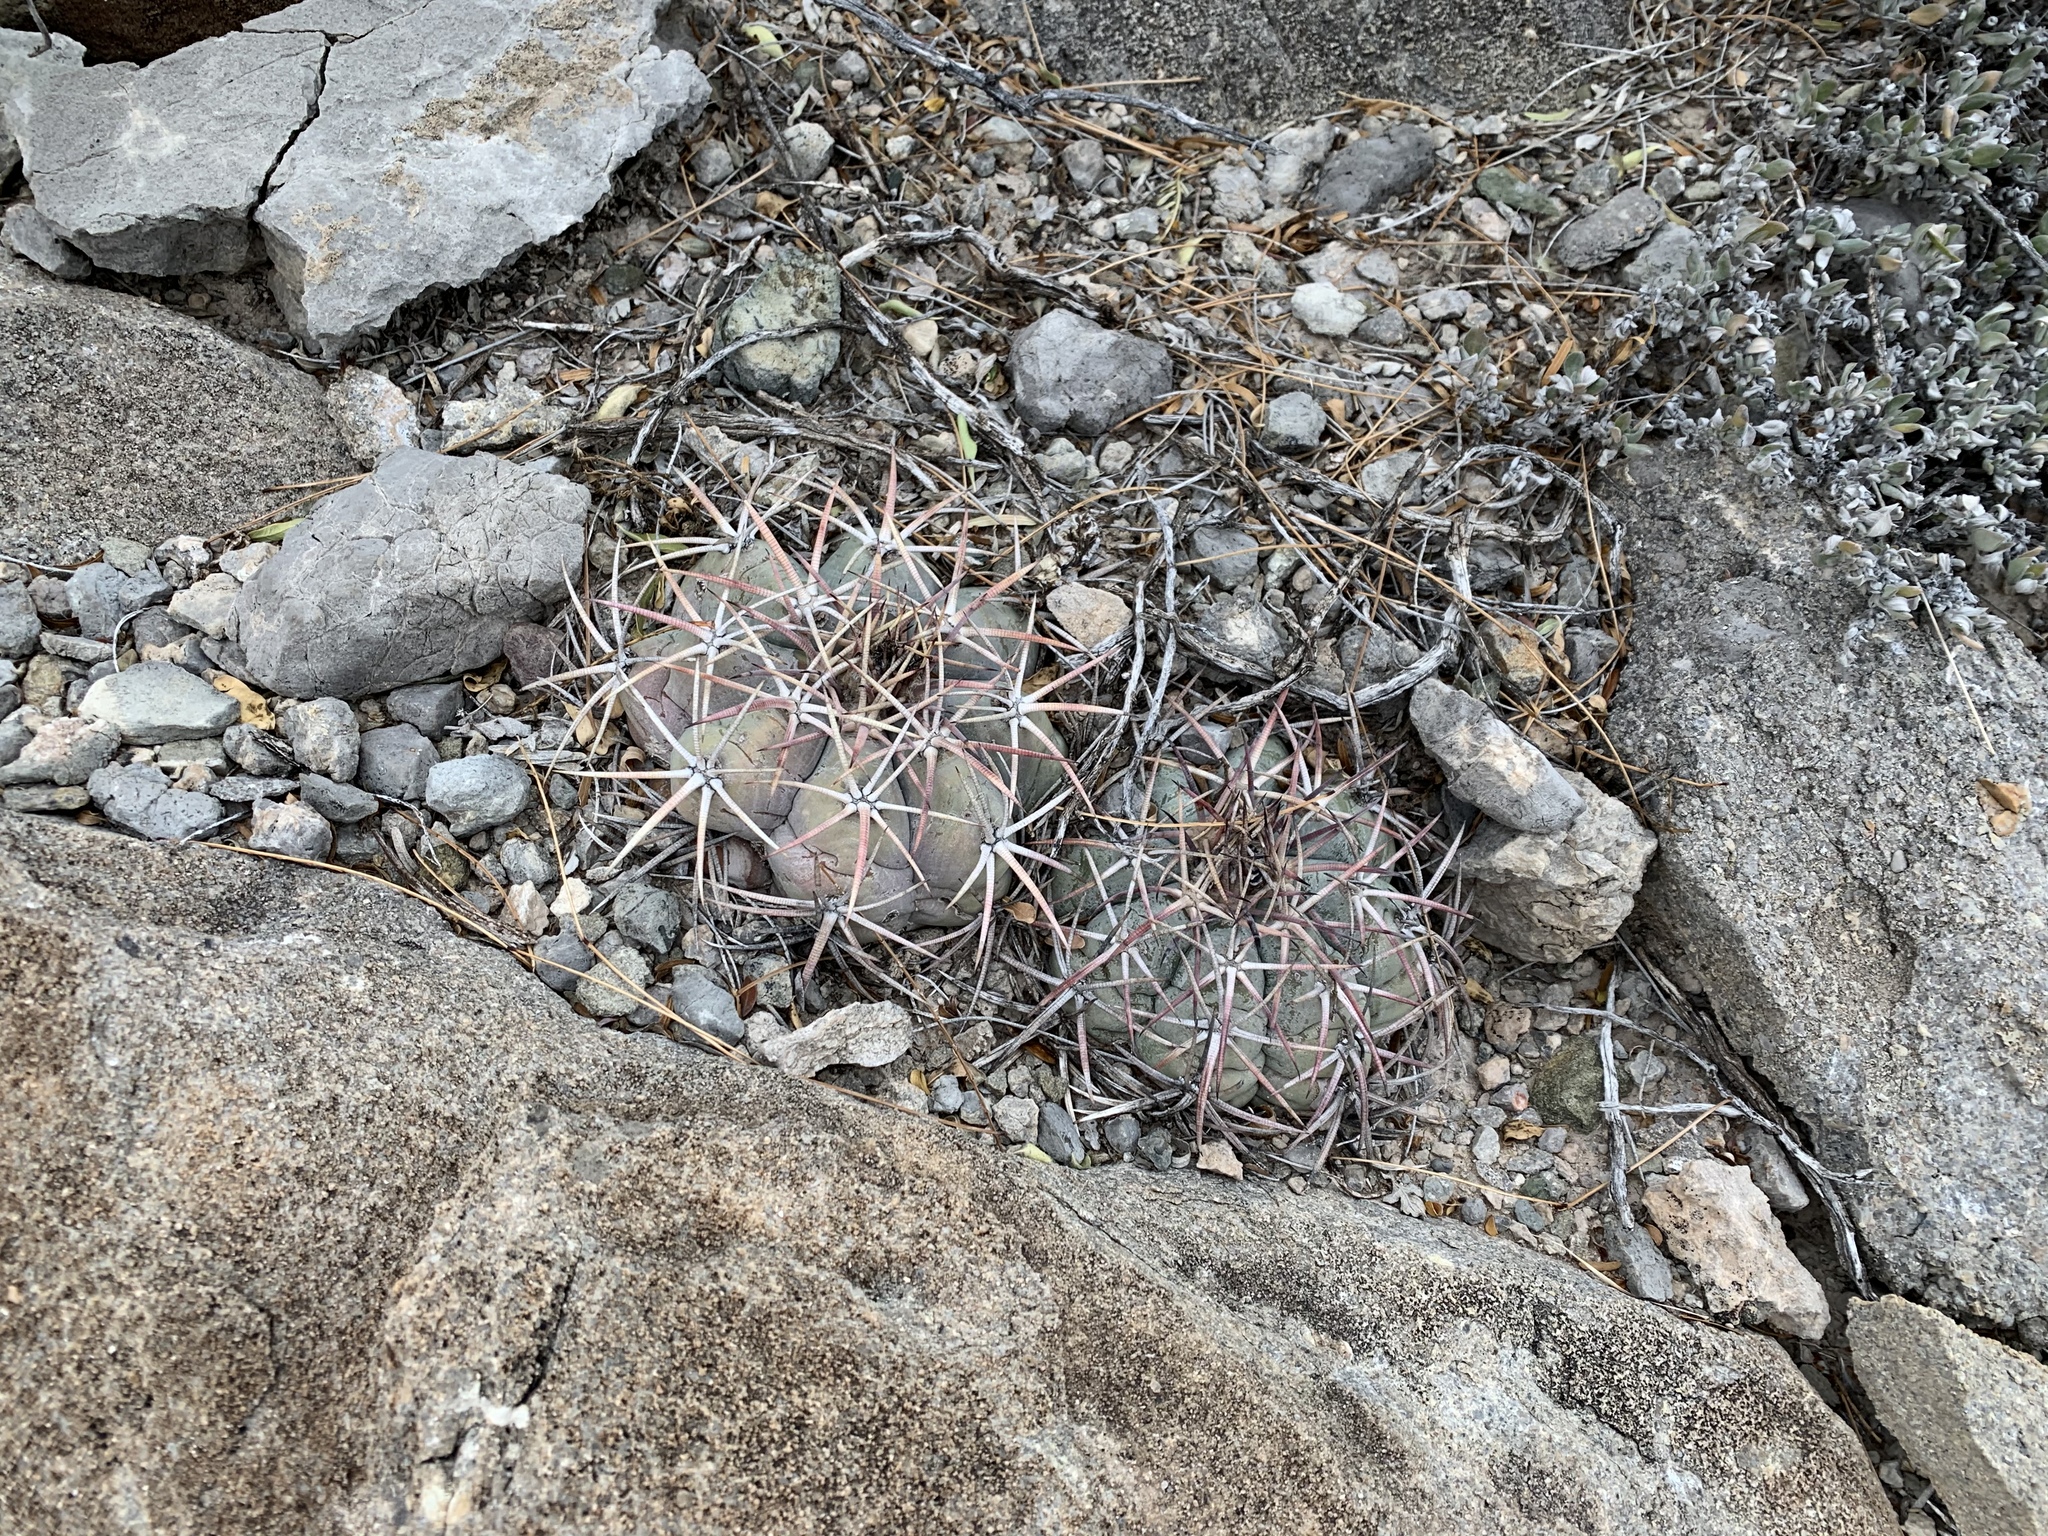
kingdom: Plantae
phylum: Tracheophyta
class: Magnoliopsida
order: Caryophyllales
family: Cactaceae
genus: Echinocactus
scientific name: Echinocactus horizonthalonius
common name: Devilshead
